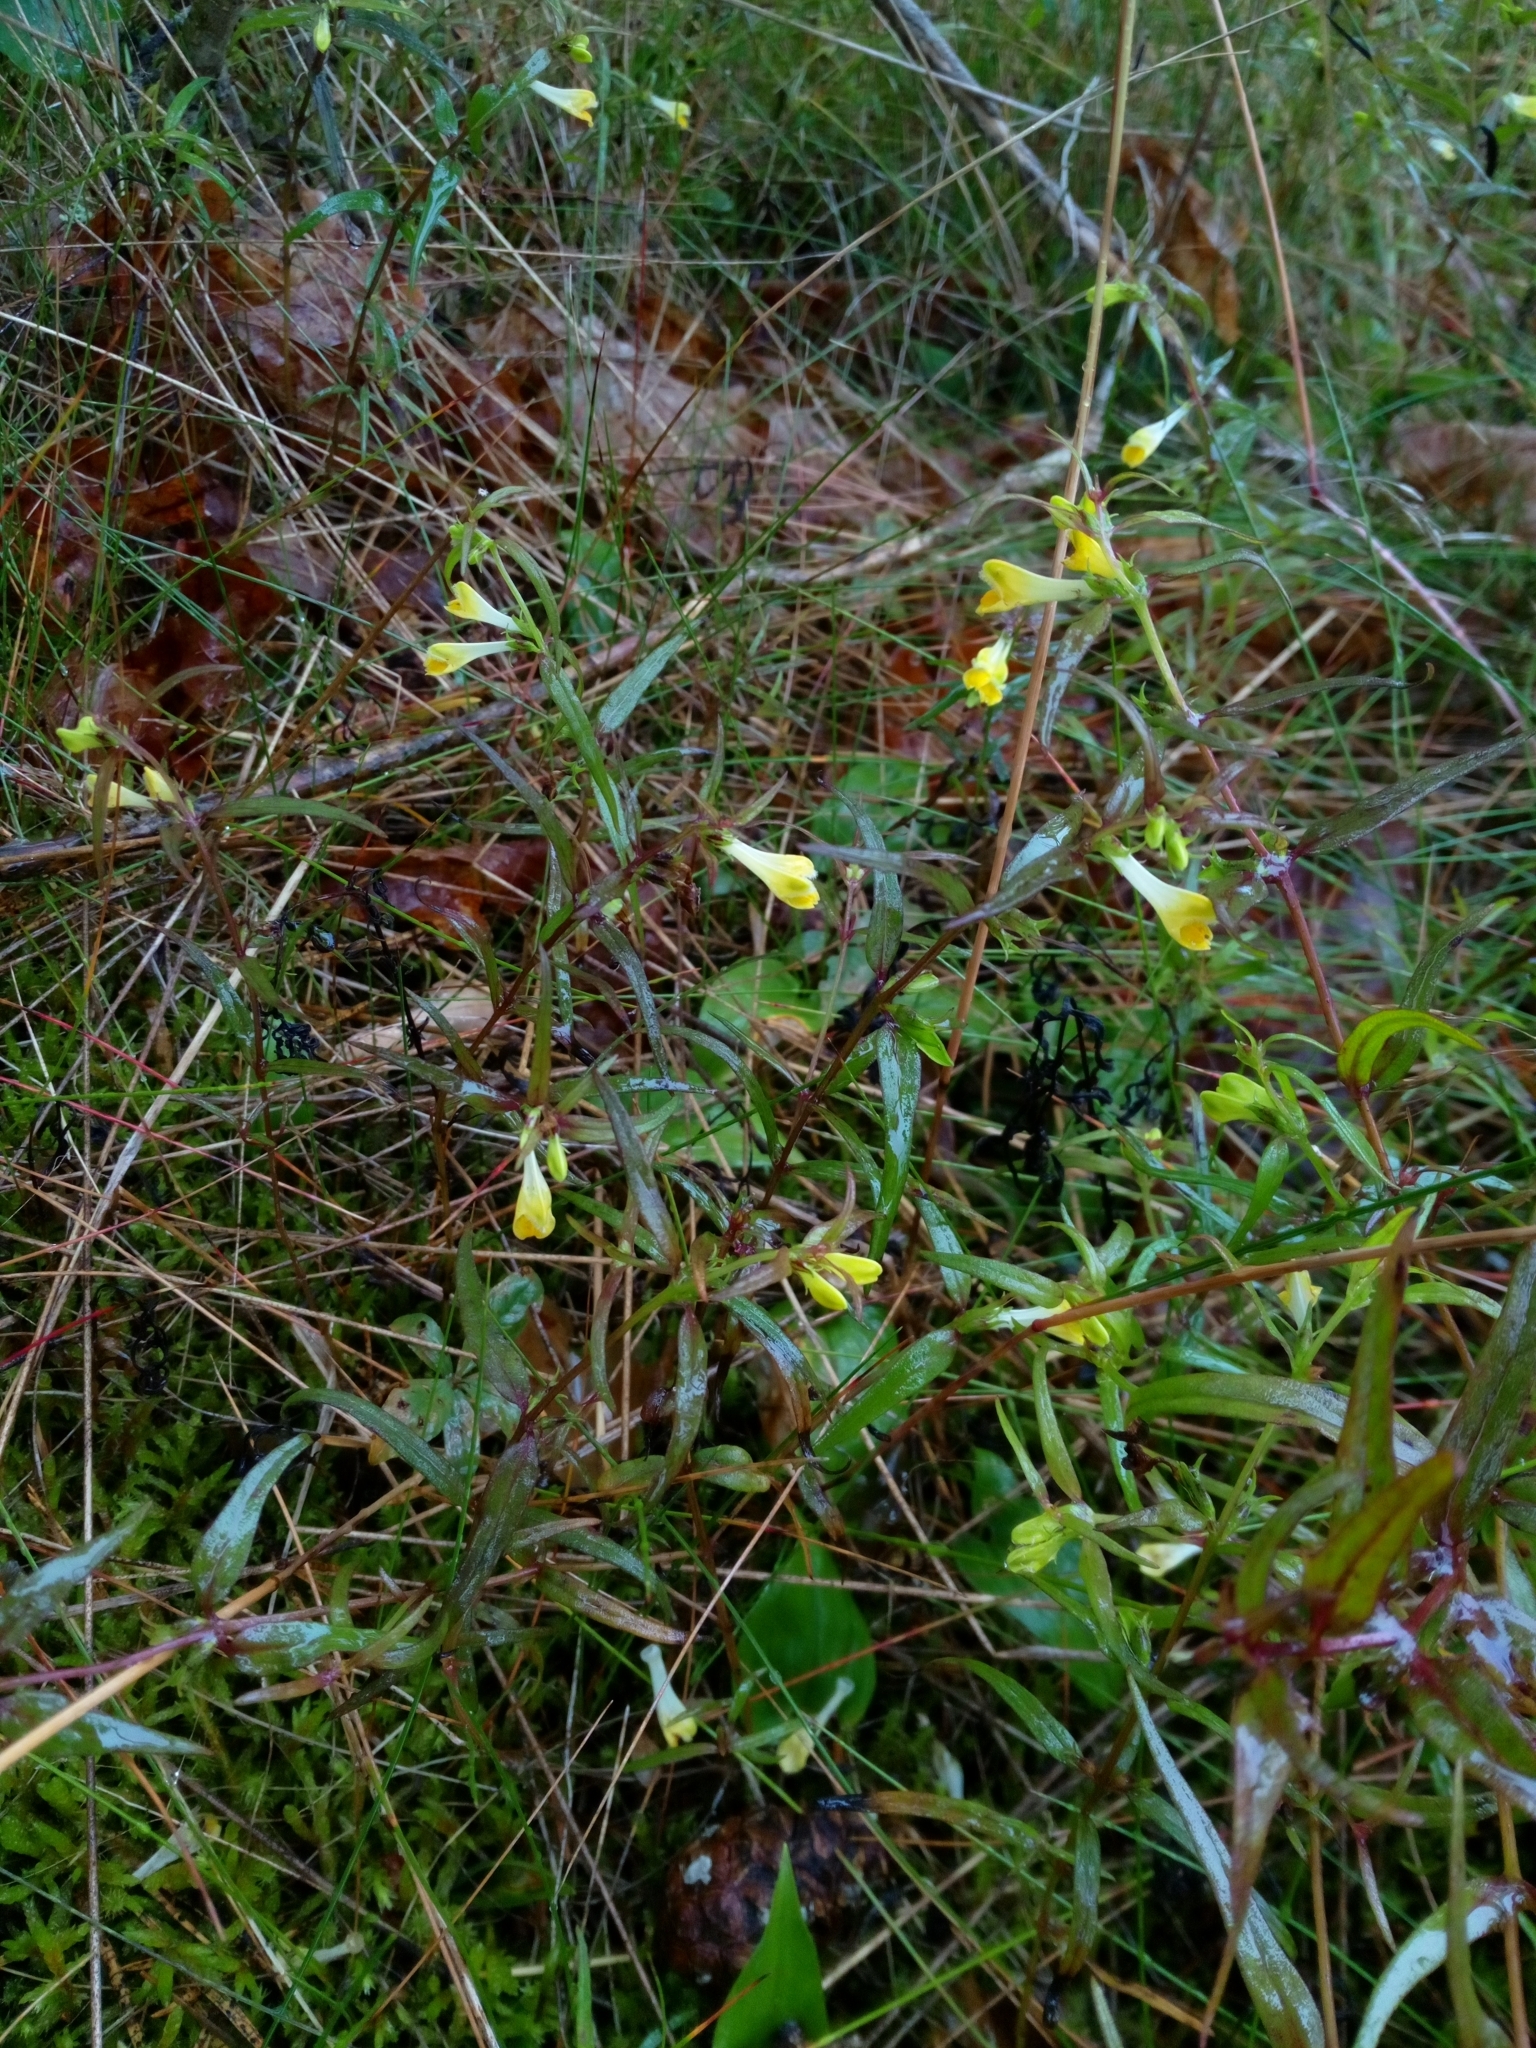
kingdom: Plantae
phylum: Tracheophyta
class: Magnoliopsida
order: Lamiales
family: Orobanchaceae
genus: Melampyrum
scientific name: Melampyrum pratense
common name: Common cow-wheat
